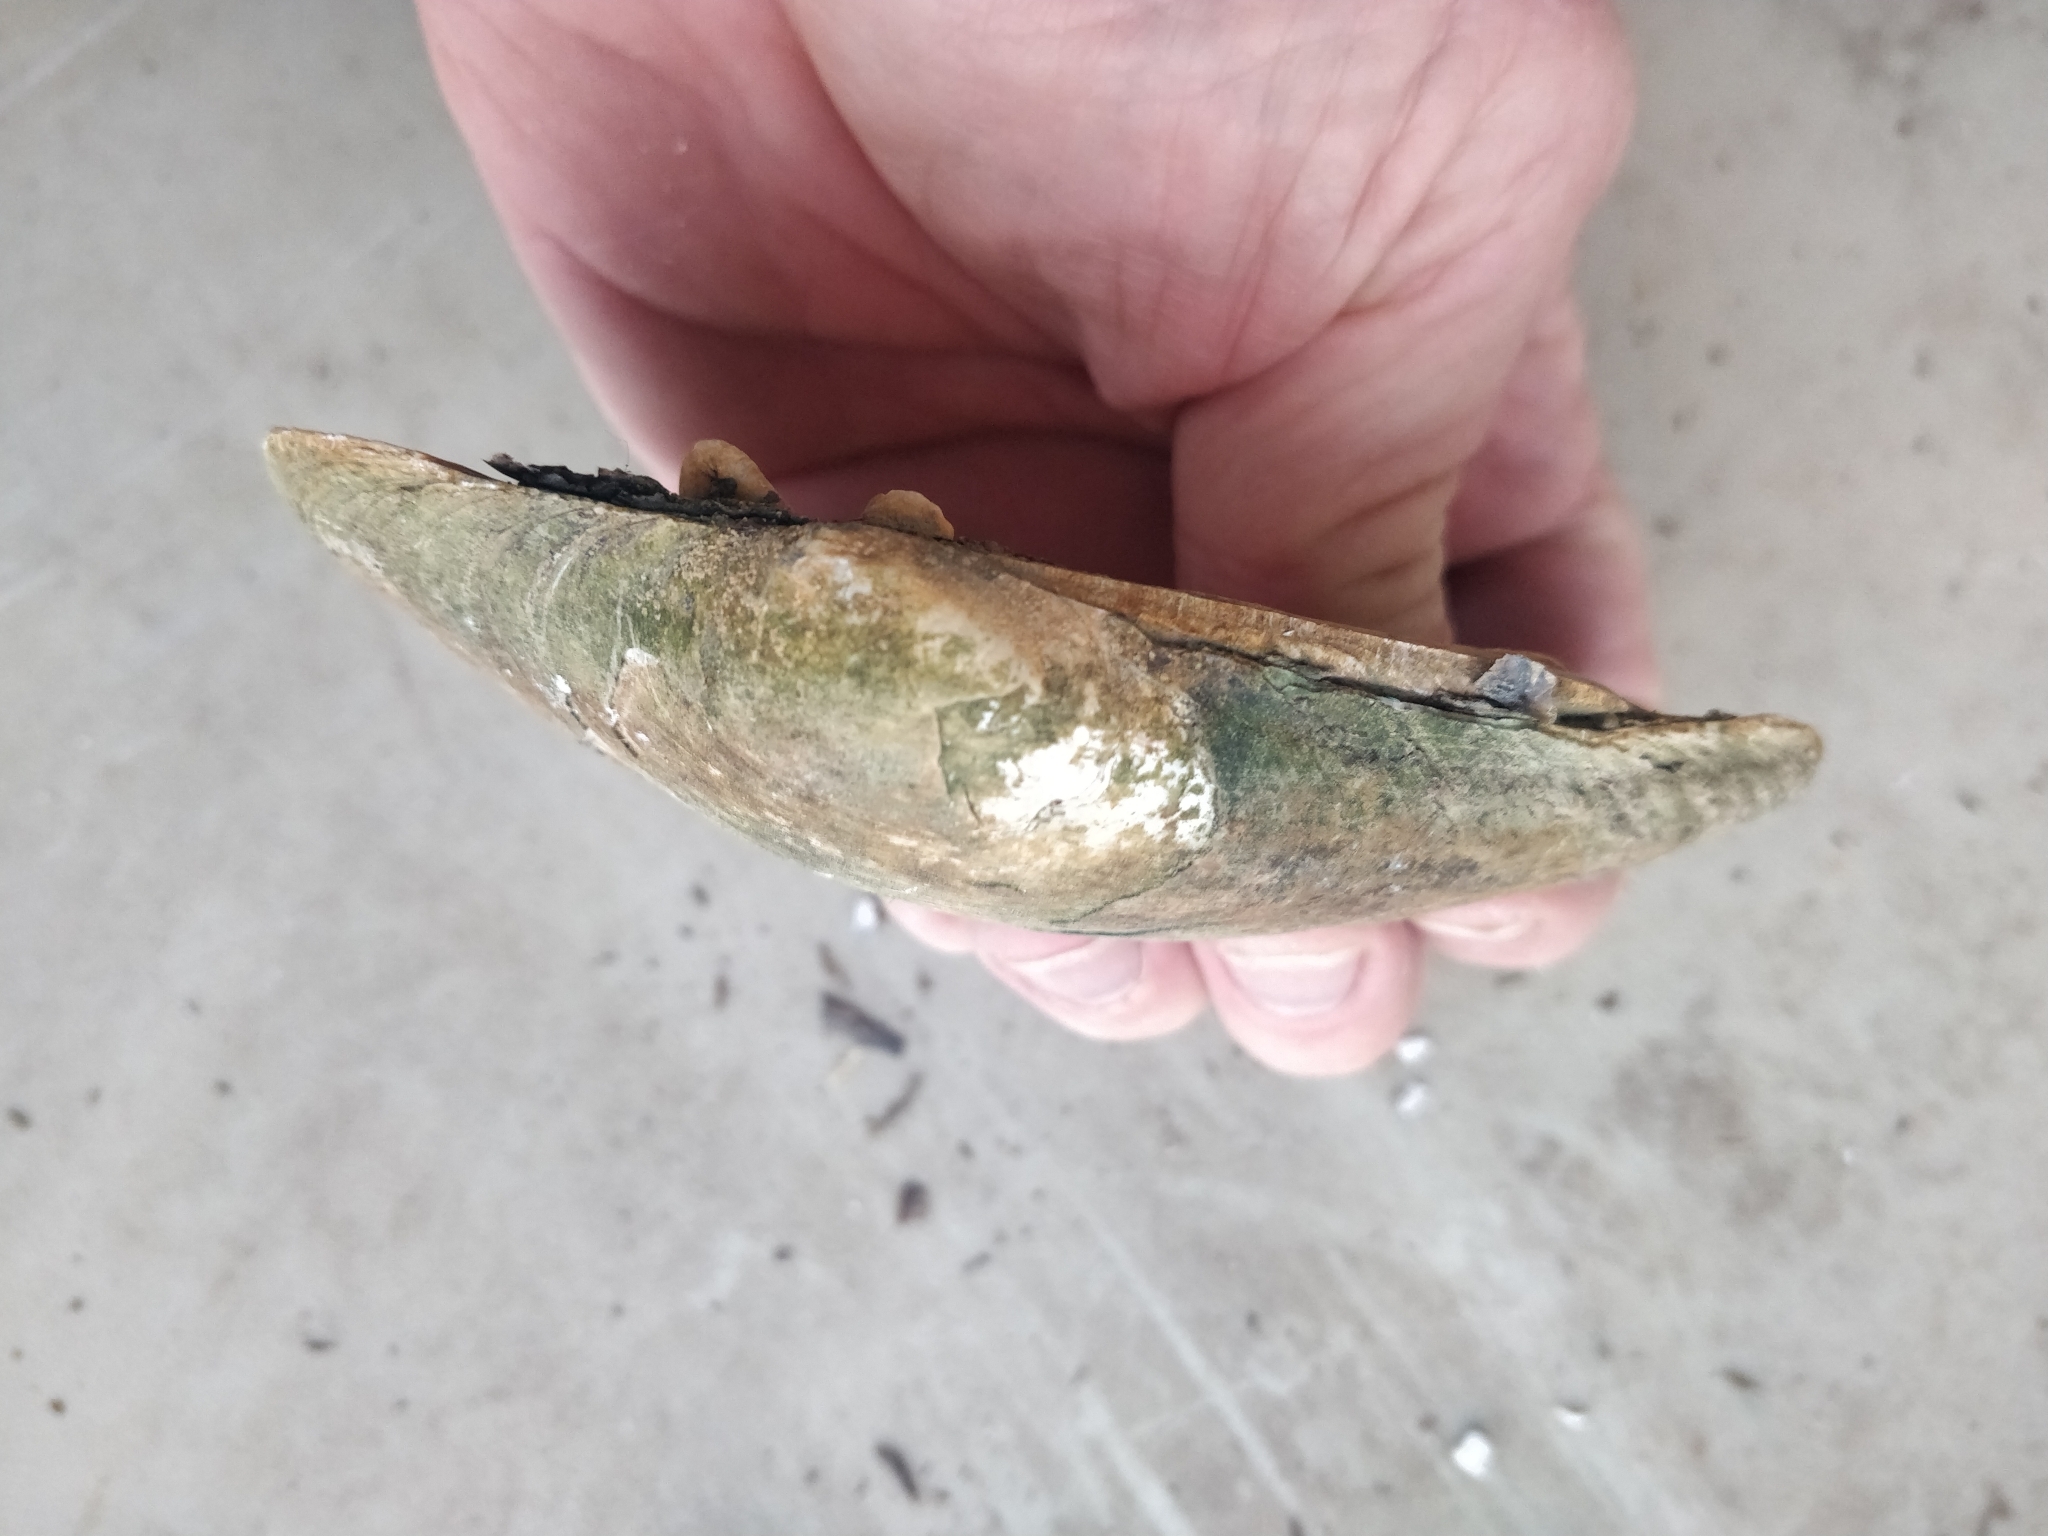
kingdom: Animalia
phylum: Mollusca
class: Bivalvia
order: Unionida
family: Unionidae
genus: Lampsilis
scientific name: Lampsilis cardium
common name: Plain pocketbook
